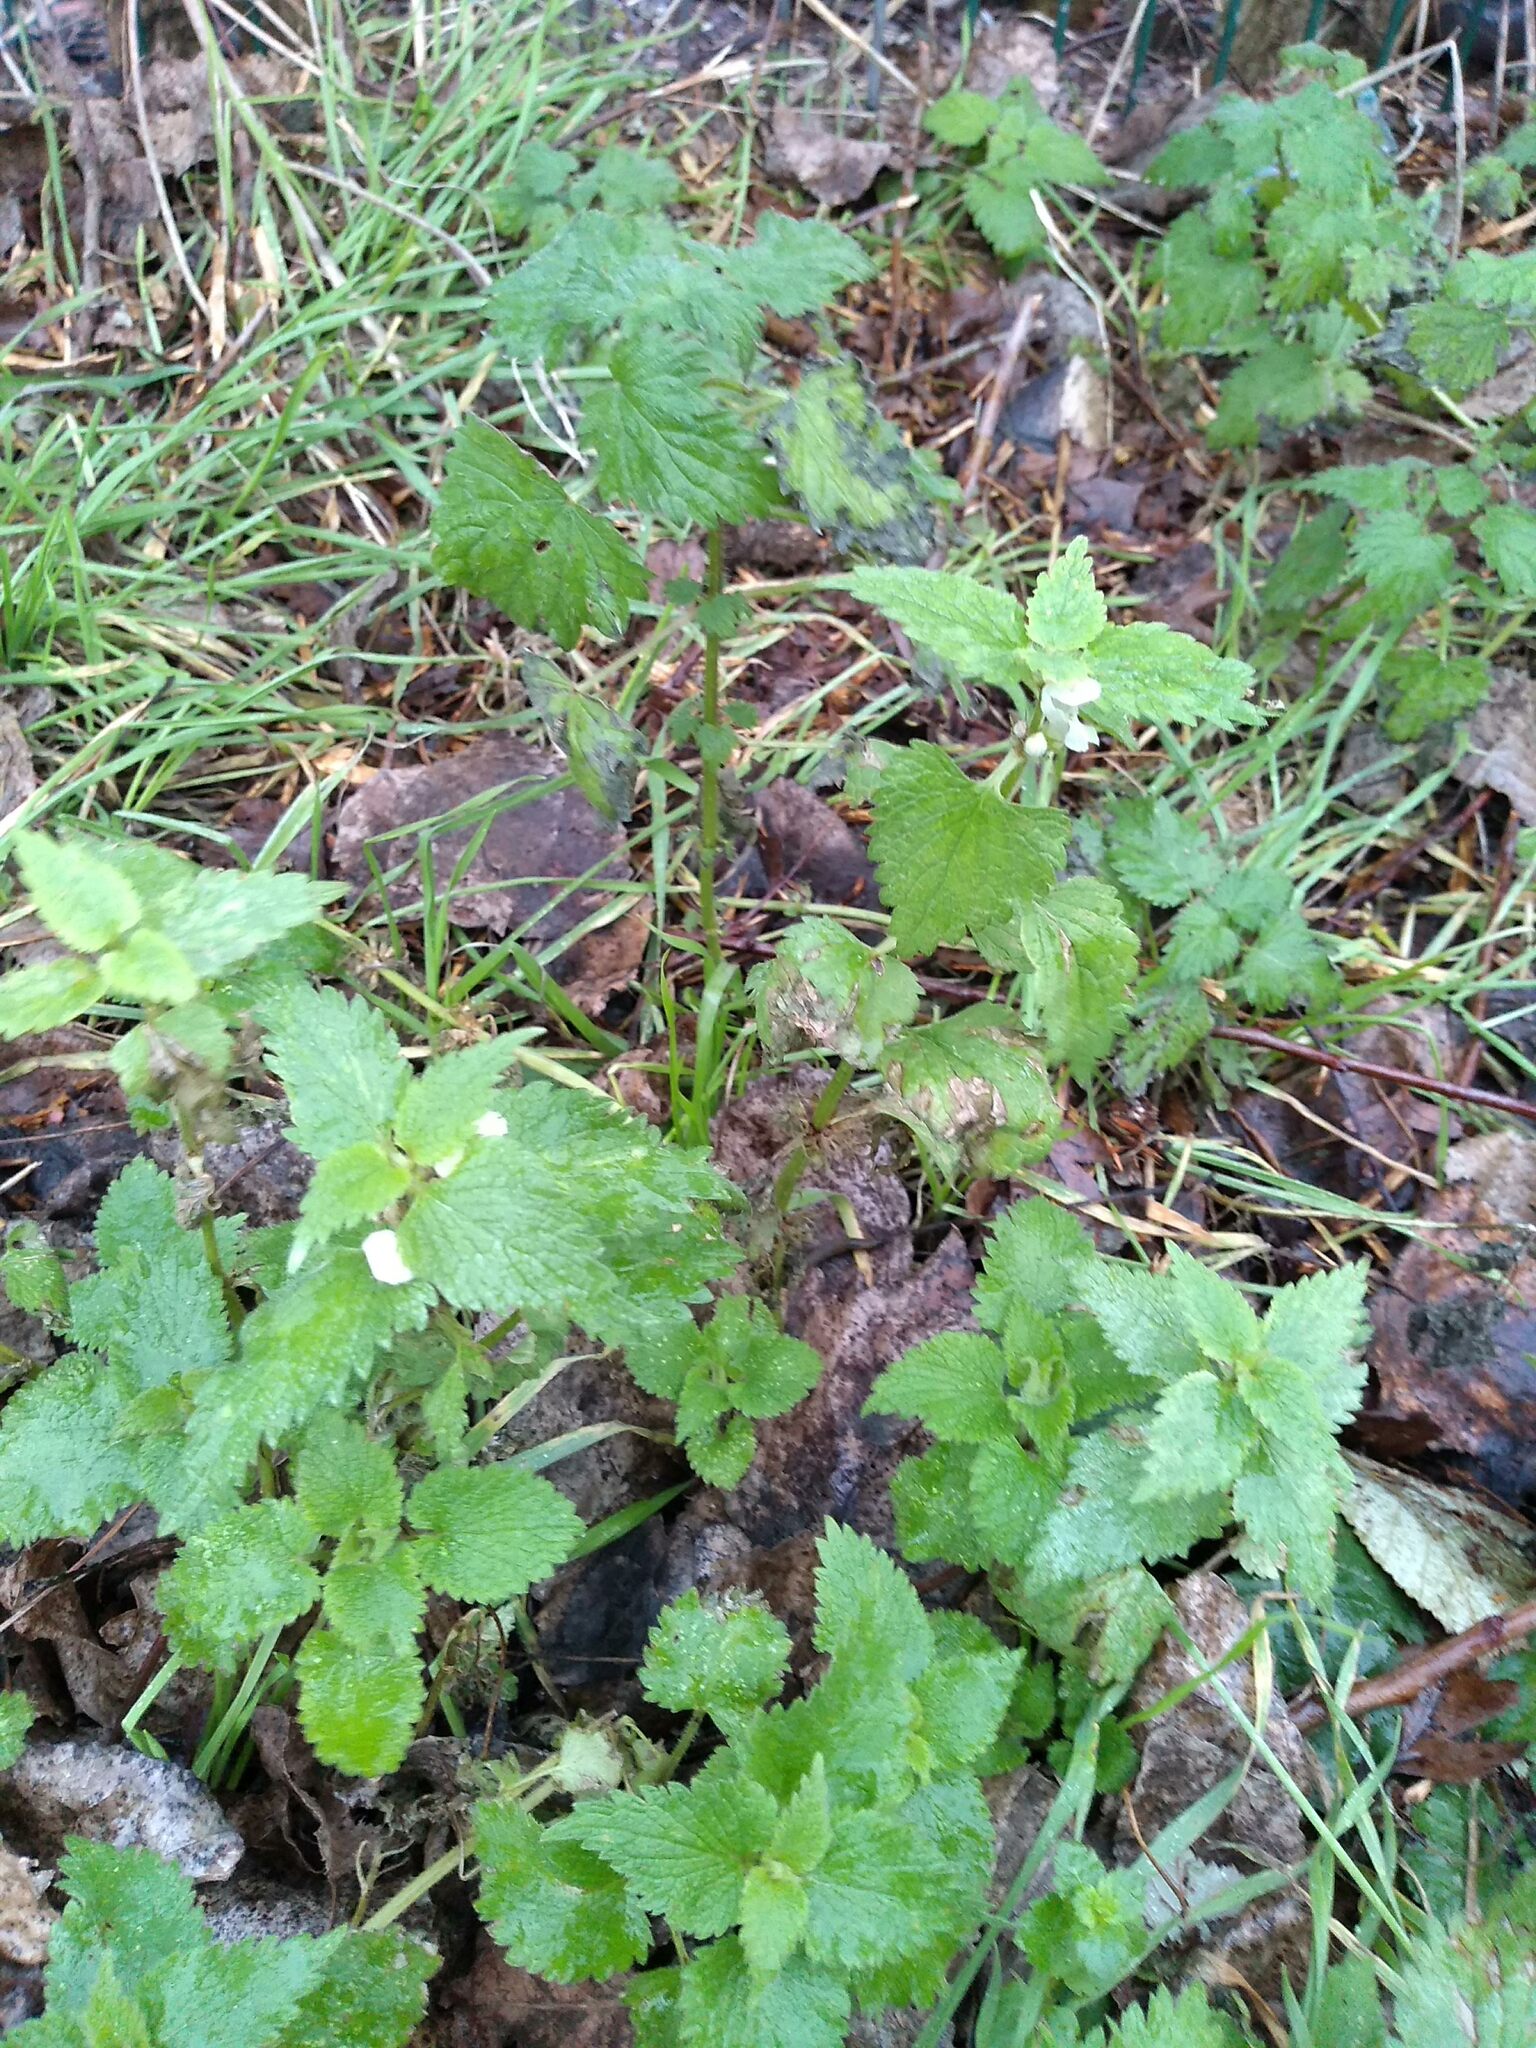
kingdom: Plantae
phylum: Tracheophyta
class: Magnoliopsida
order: Lamiales
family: Lamiaceae
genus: Lamium
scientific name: Lamium album
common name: White dead-nettle
